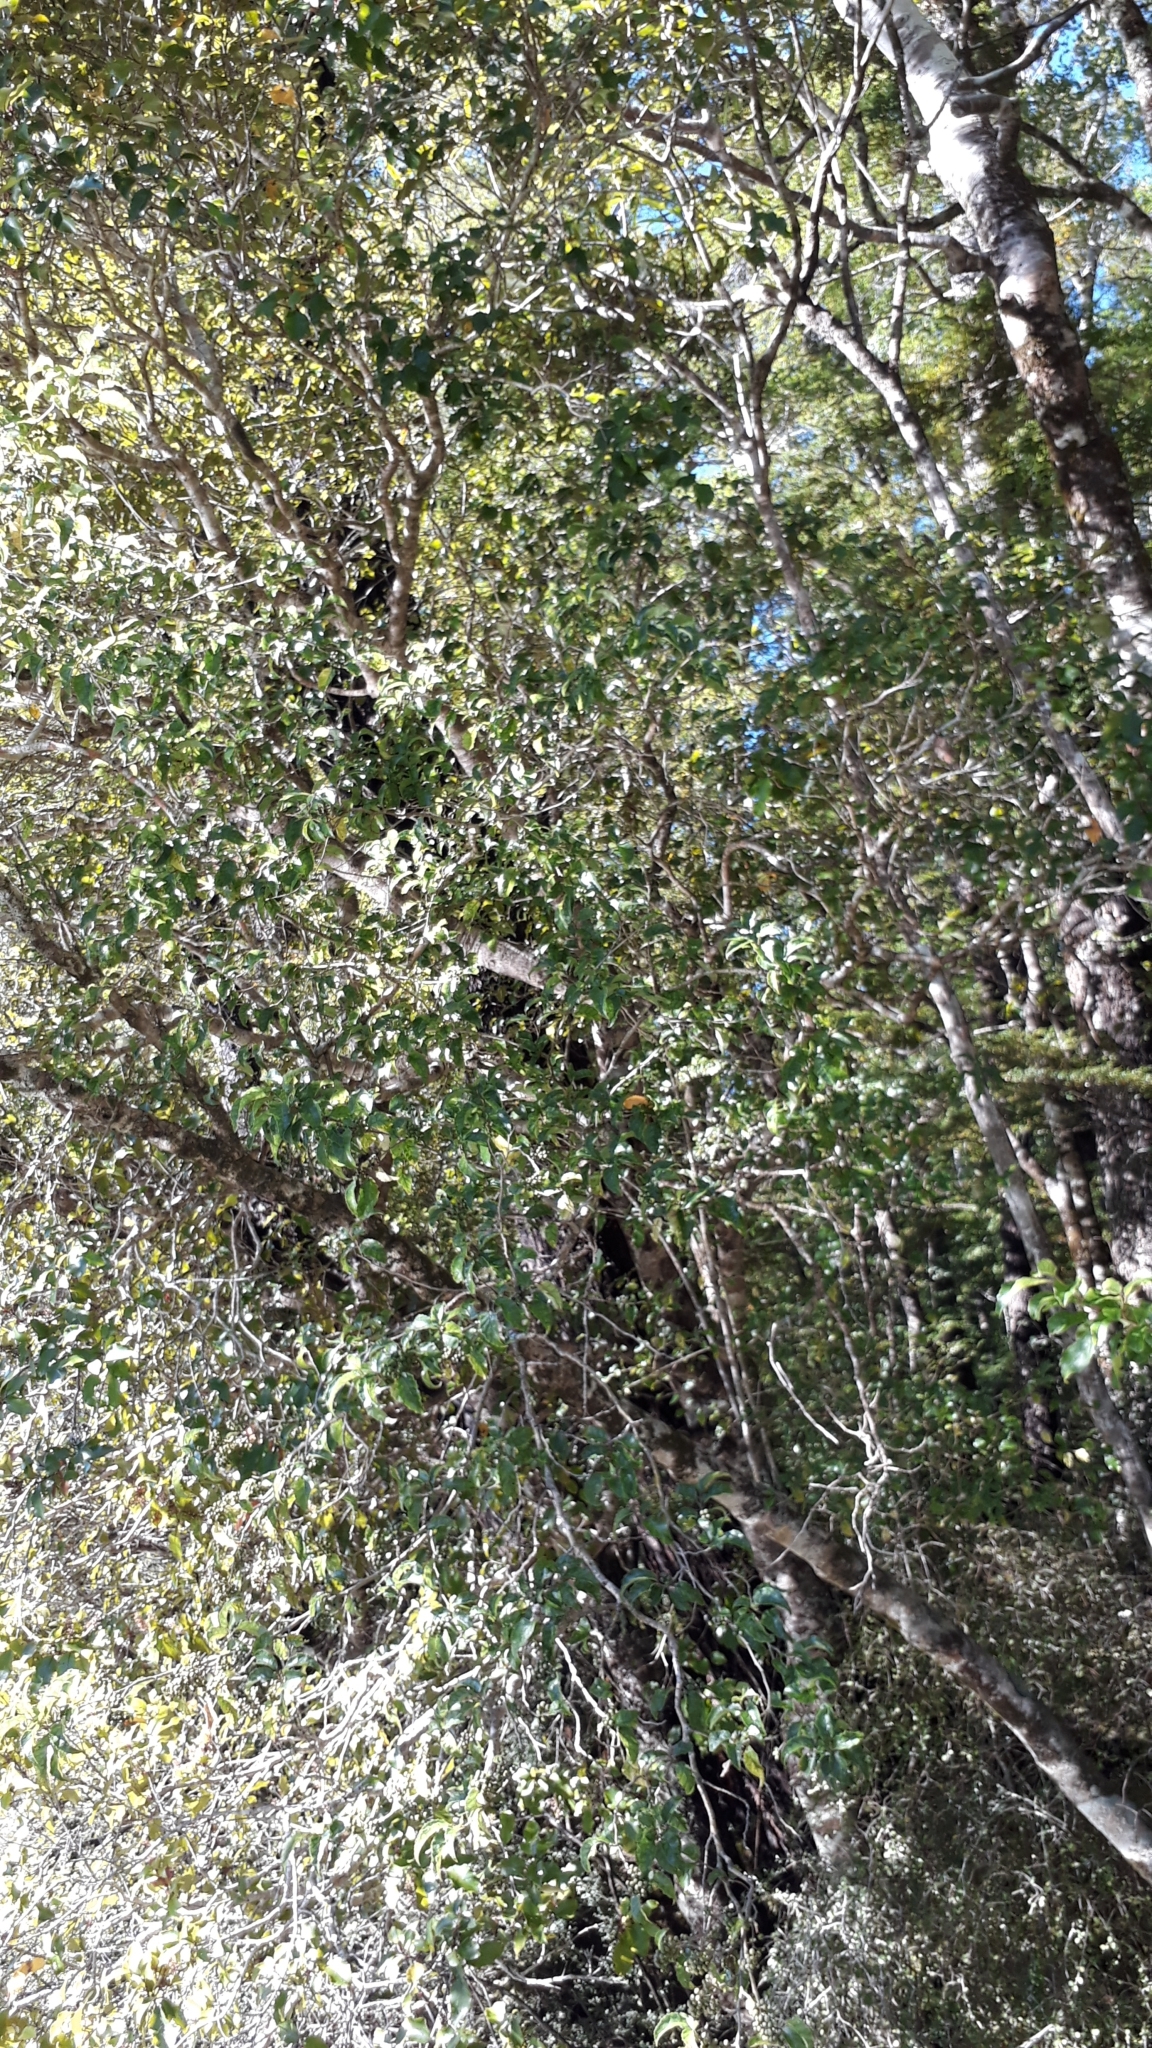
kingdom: Plantae
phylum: Tracheophyta
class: Magnoliopsida
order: Asterales
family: Rousseaceae
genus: Carpodetus
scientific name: Carpodetus serratus
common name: White mapau
